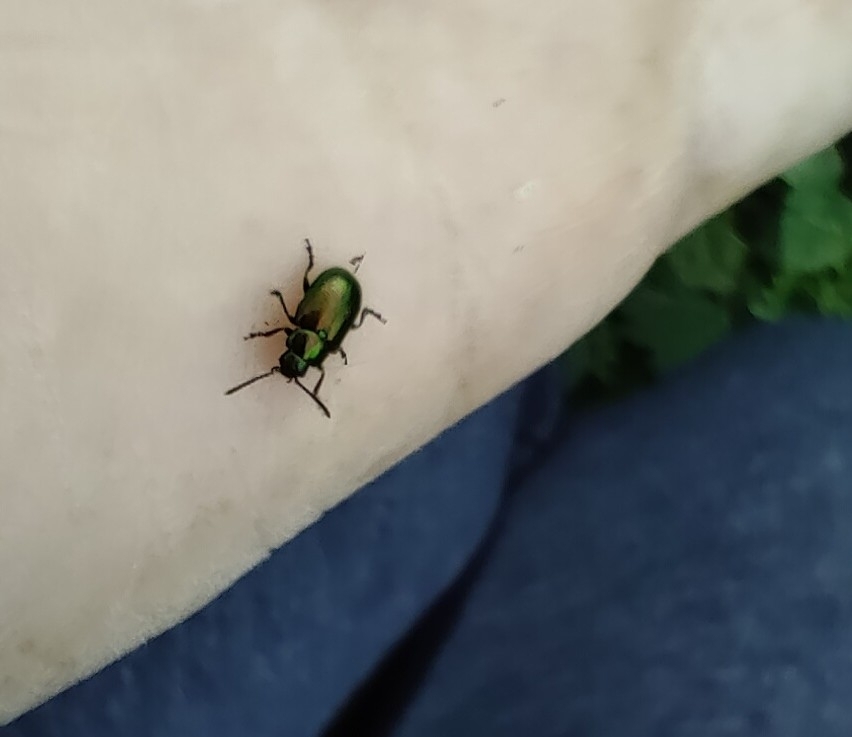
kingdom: Animalia
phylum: Arthropoda
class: Insecta
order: Coleoptera
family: Chrysomelidae
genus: Gastrophysa
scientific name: Gastrophysa viridula
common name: Green dock beetle
